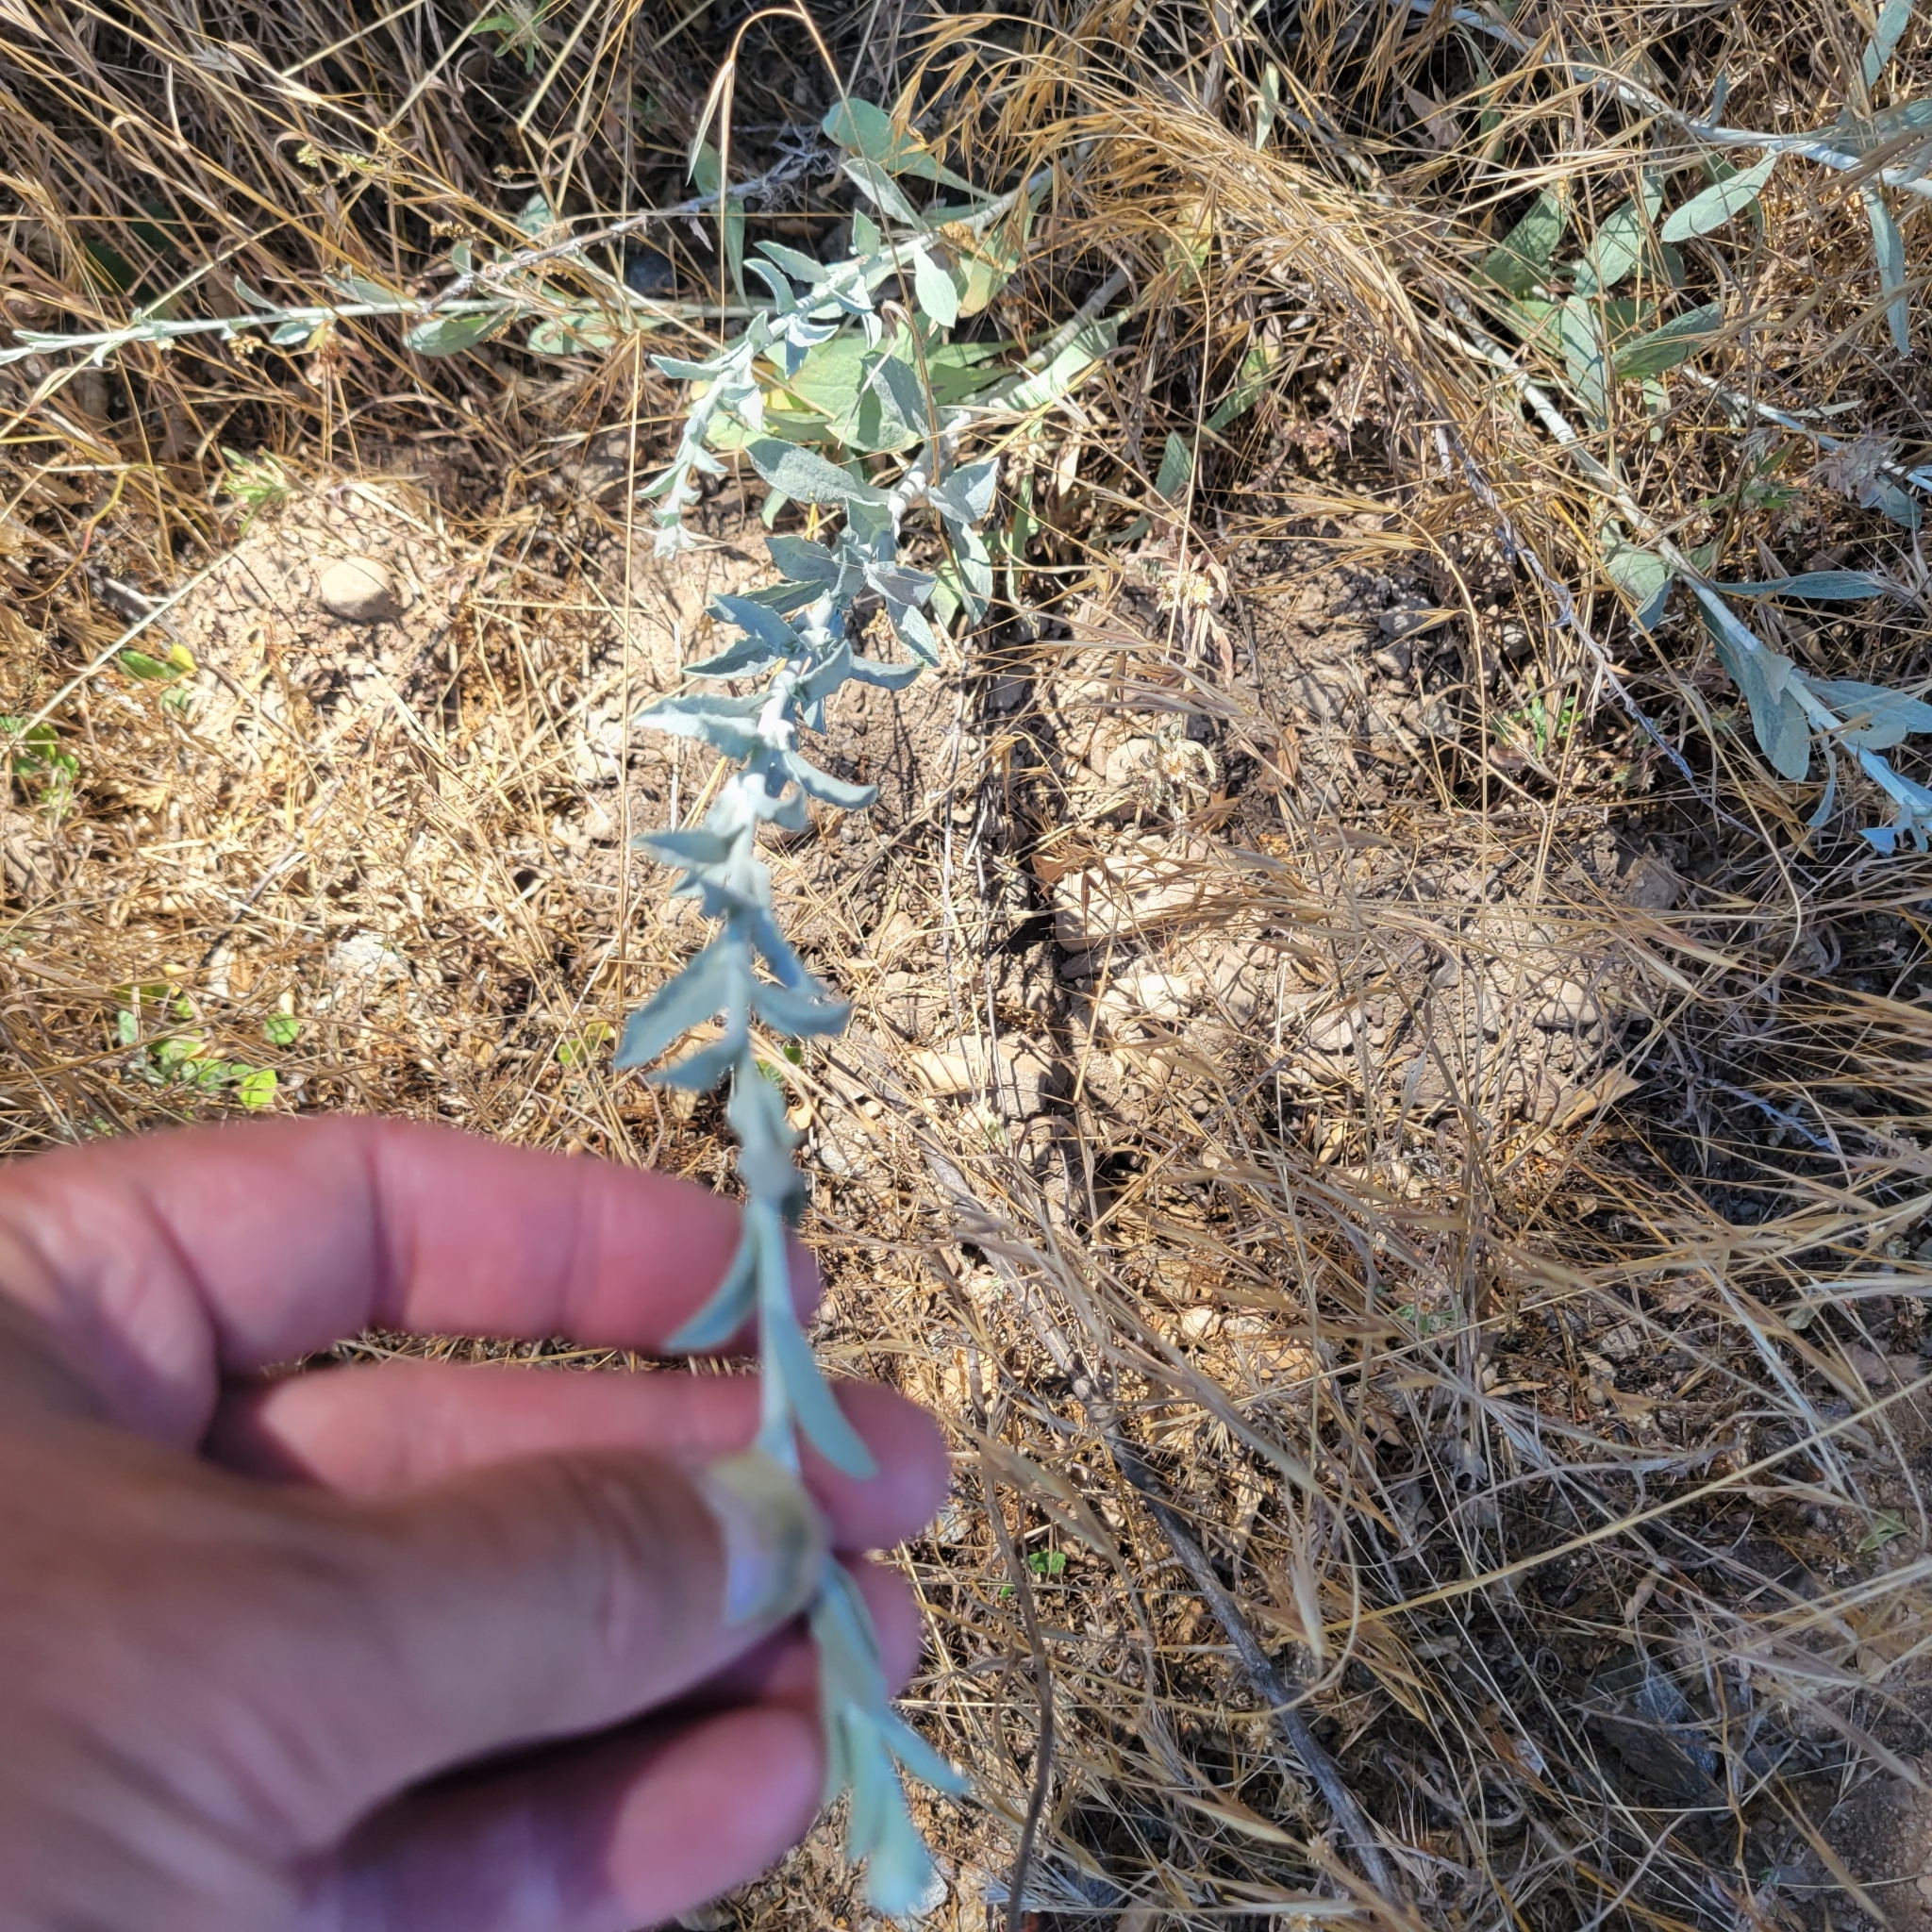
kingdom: Plantae
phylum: Tracheophyta
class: Magnoliopsida
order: Asterales
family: Asteraceae
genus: Corethrogyne
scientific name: Corethrogyne filaginifolia
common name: Sand-aster
